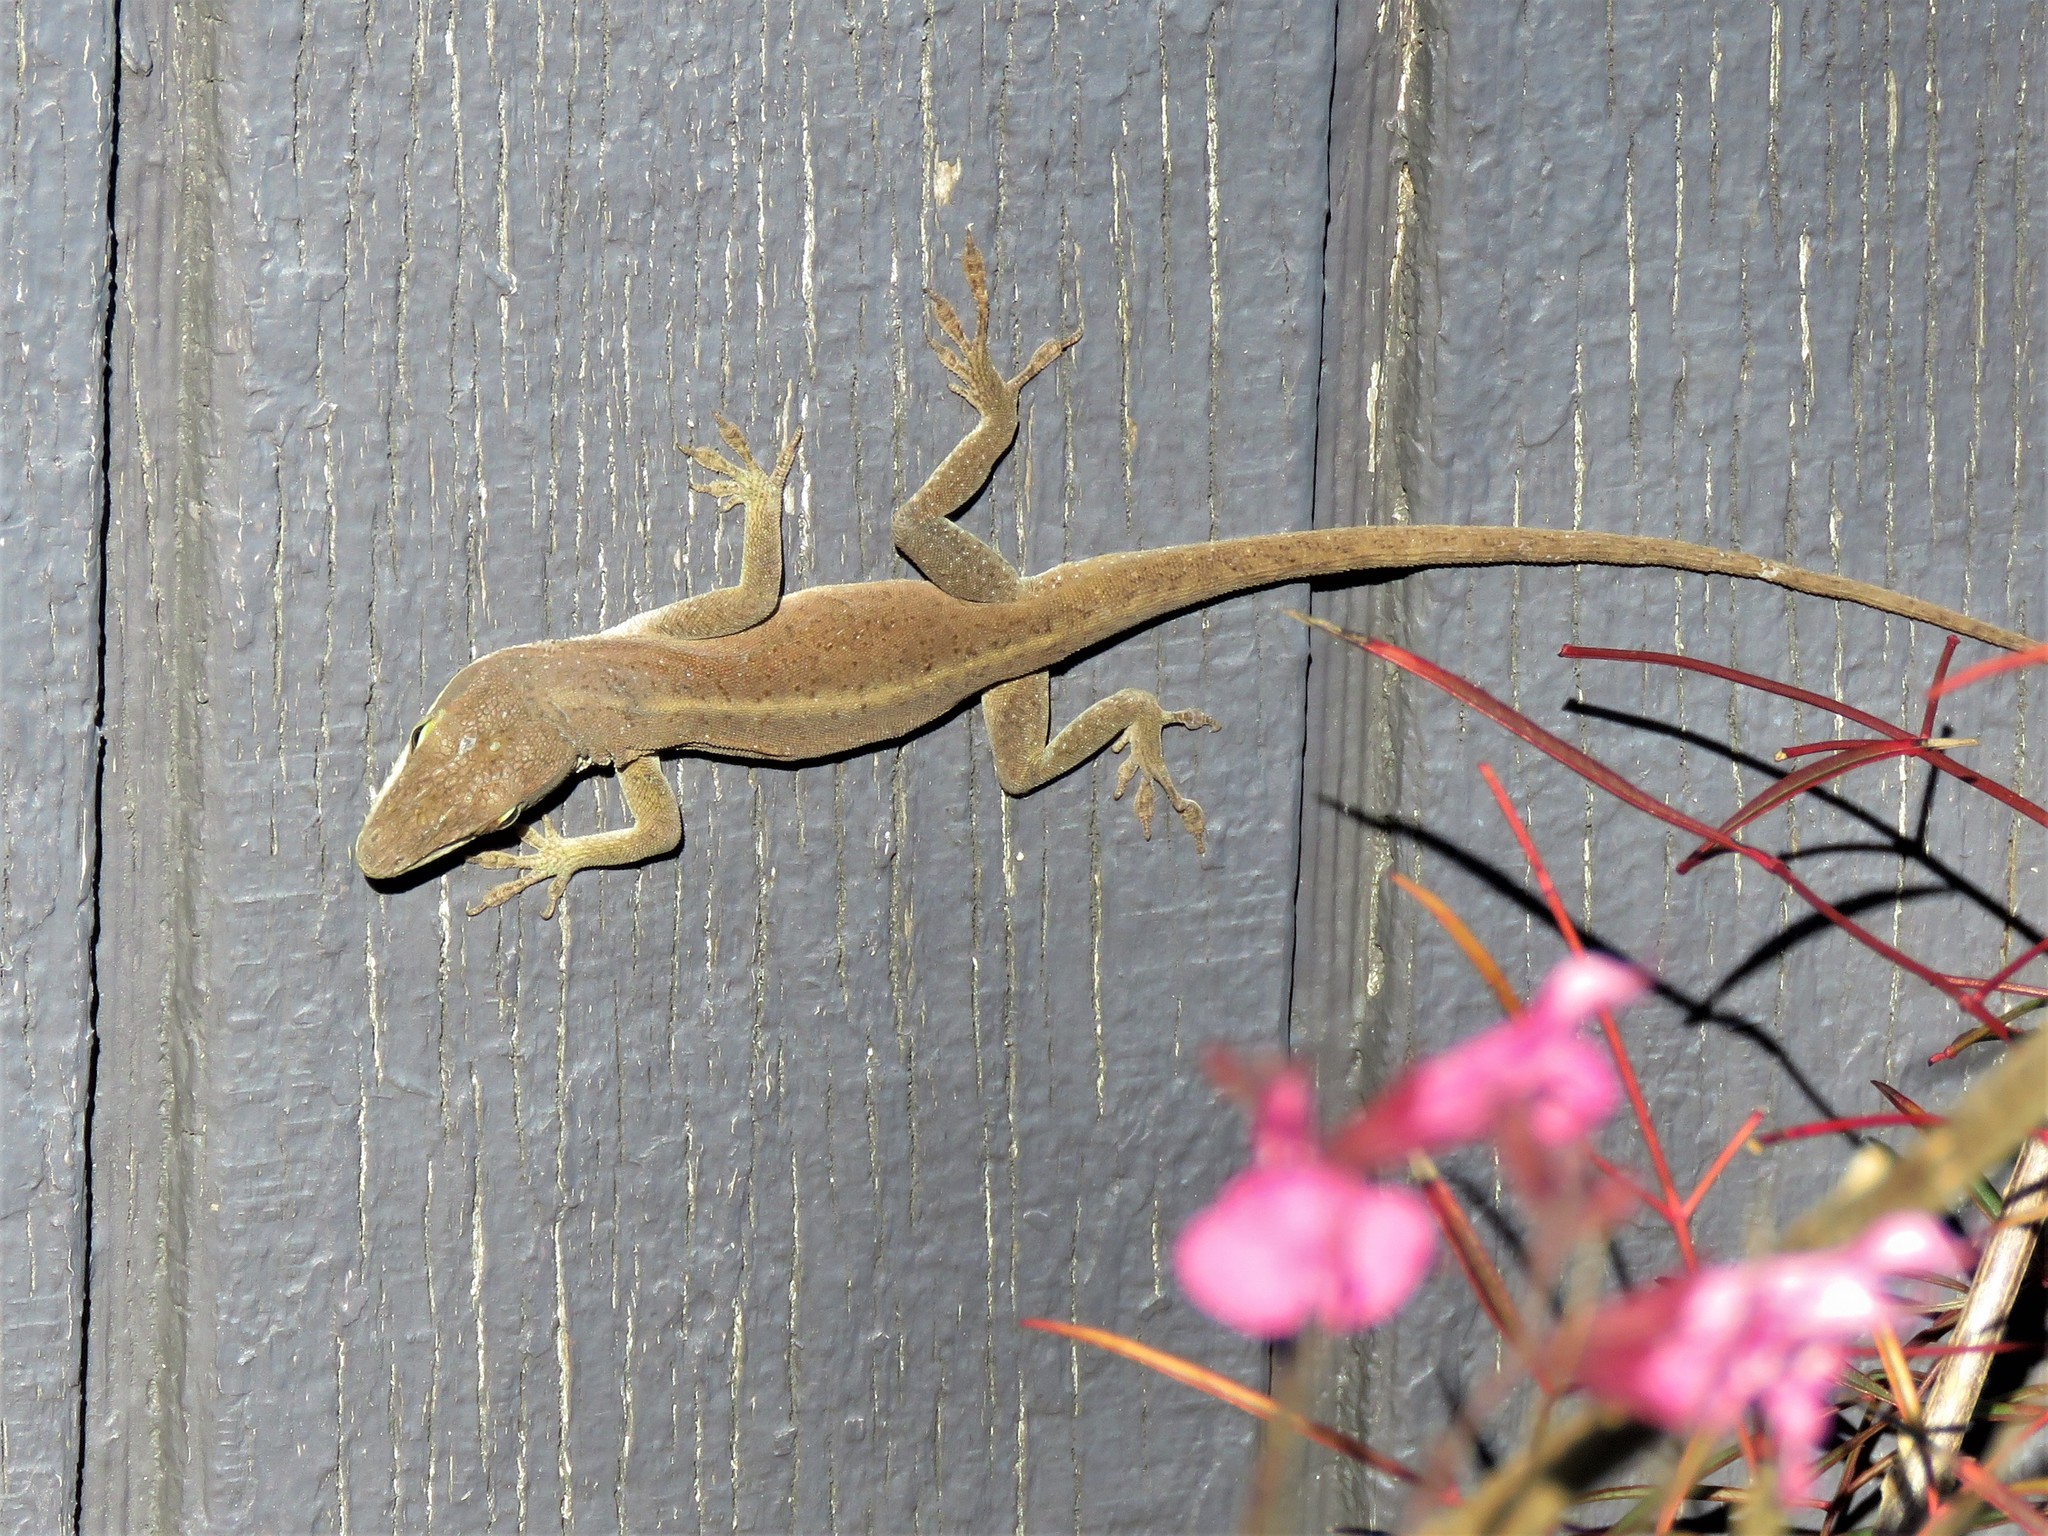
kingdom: Animalia
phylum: Chordata
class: Squamata
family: Dactyloidae
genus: Anolis
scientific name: Anolis carolinensis
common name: Green anole
